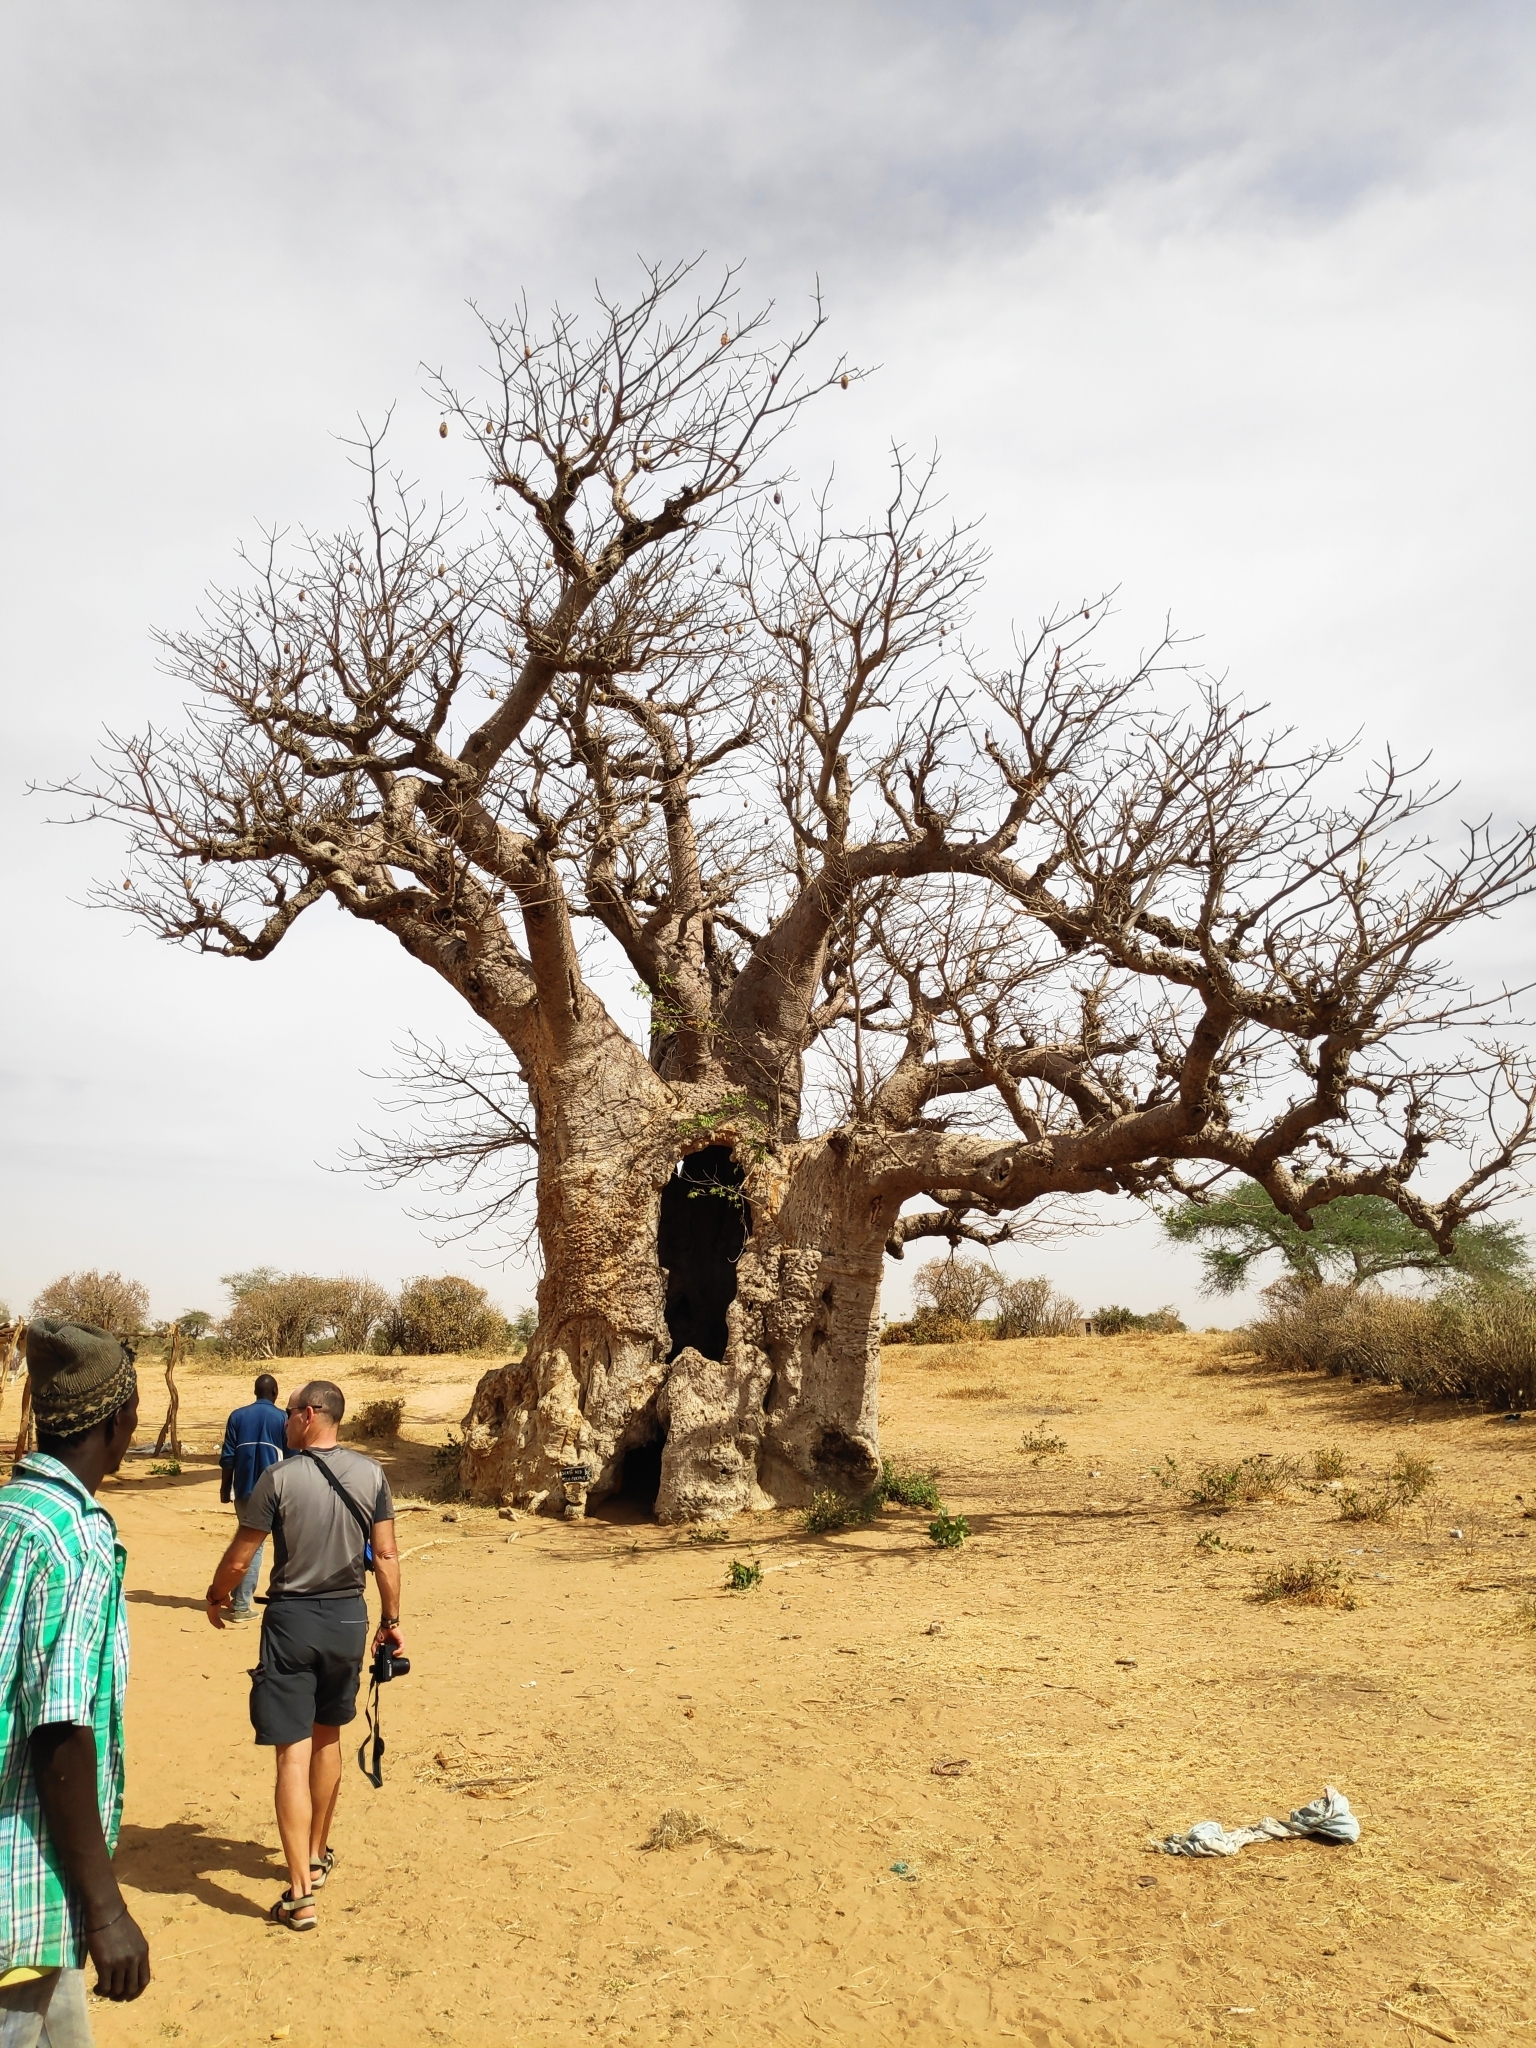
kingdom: Plantae
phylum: Tracheophyta
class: Magnoliopsida
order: Malvales
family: Malvaceae
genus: Adansonia
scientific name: Adansonia digitata
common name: Dead-rat-tree
